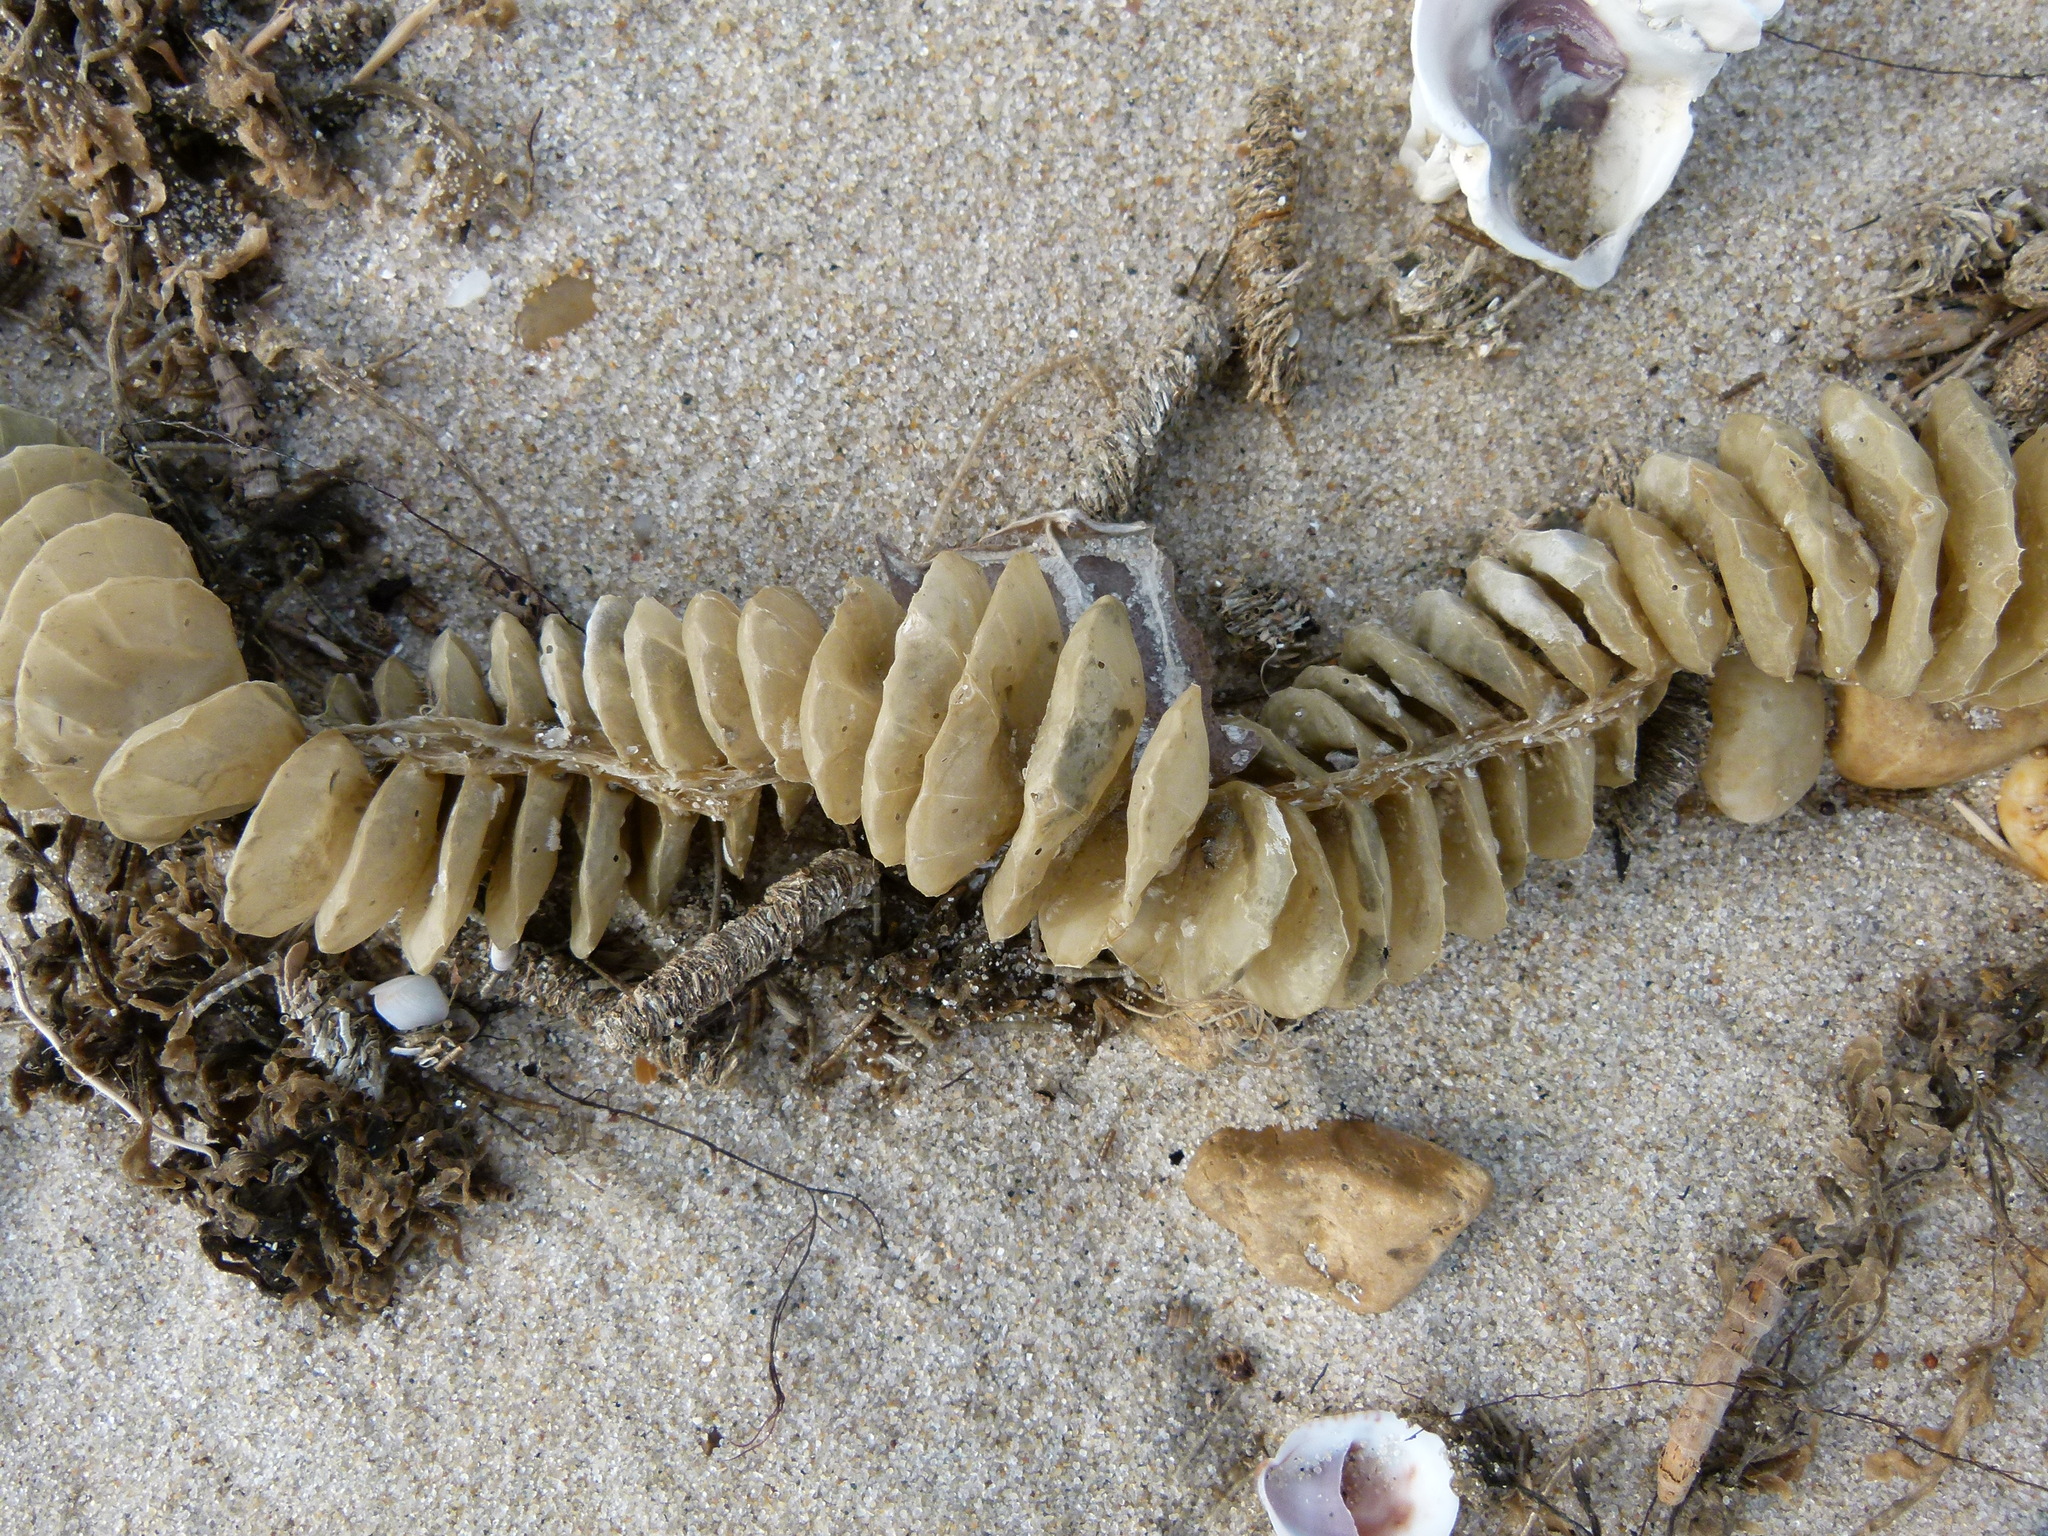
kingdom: Animalia
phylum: Mollusca
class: Gastropoda
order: Neogastropoda
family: Busyconidae
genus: Busycotypus
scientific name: Busycotypus canaliculatus
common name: Channeled whelk
